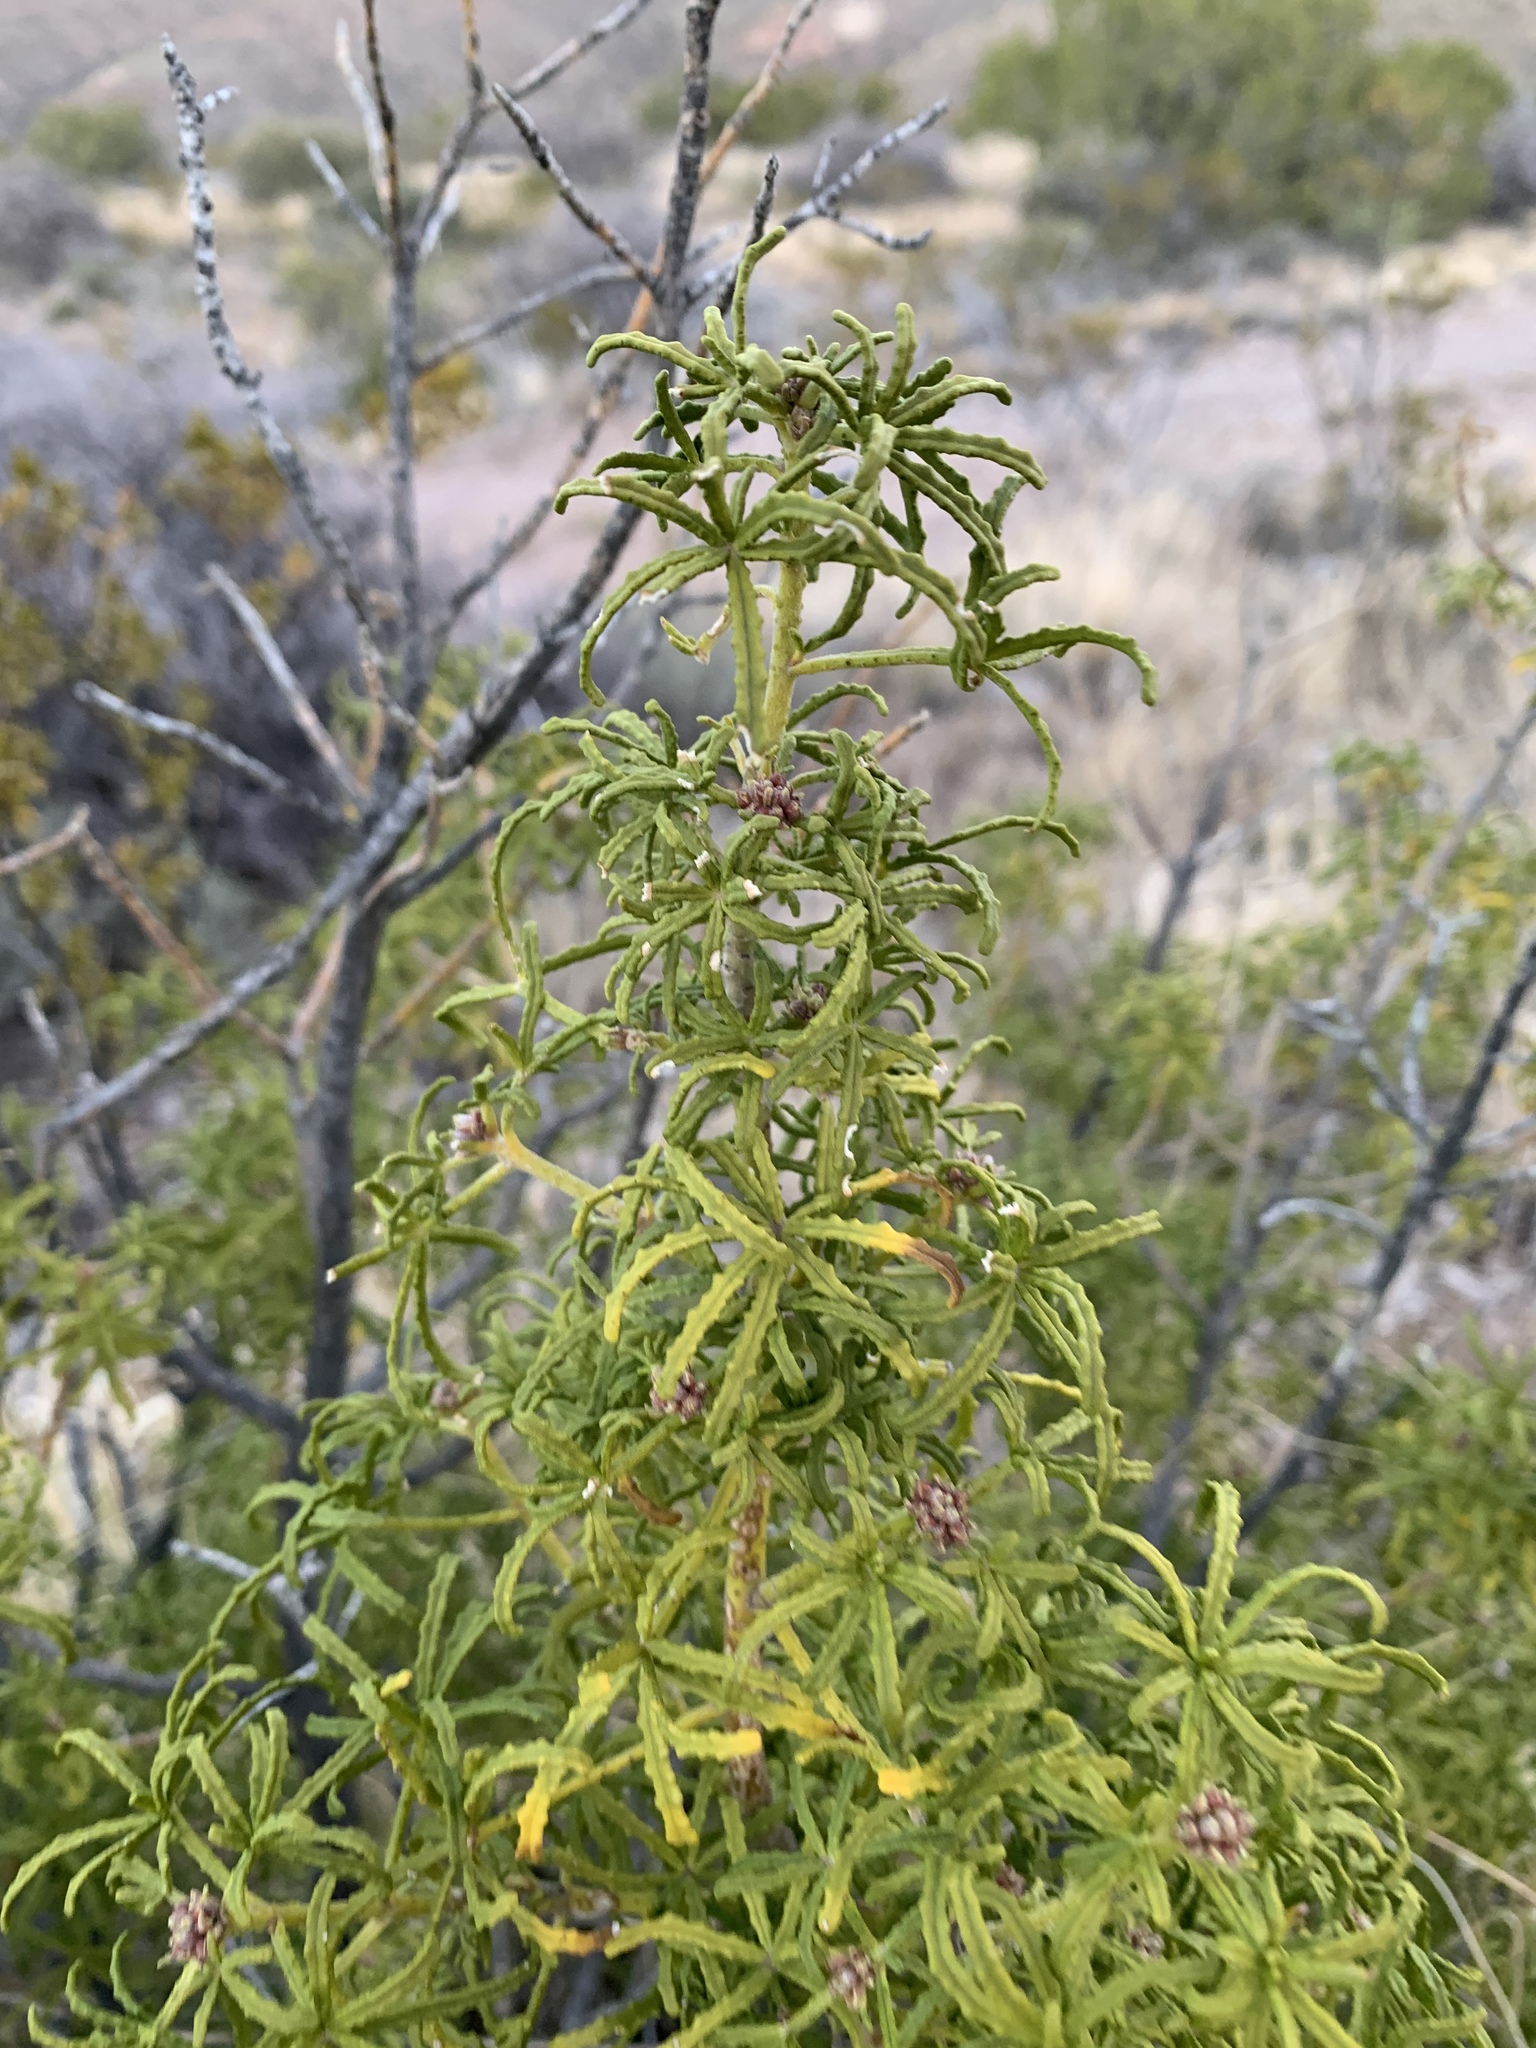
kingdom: Plantae
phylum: Tracheophyta
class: Magnoliopsida
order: Sapindales
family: Rutaceae
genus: Choisya
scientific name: Choisya dumosa
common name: Mexican-orange
